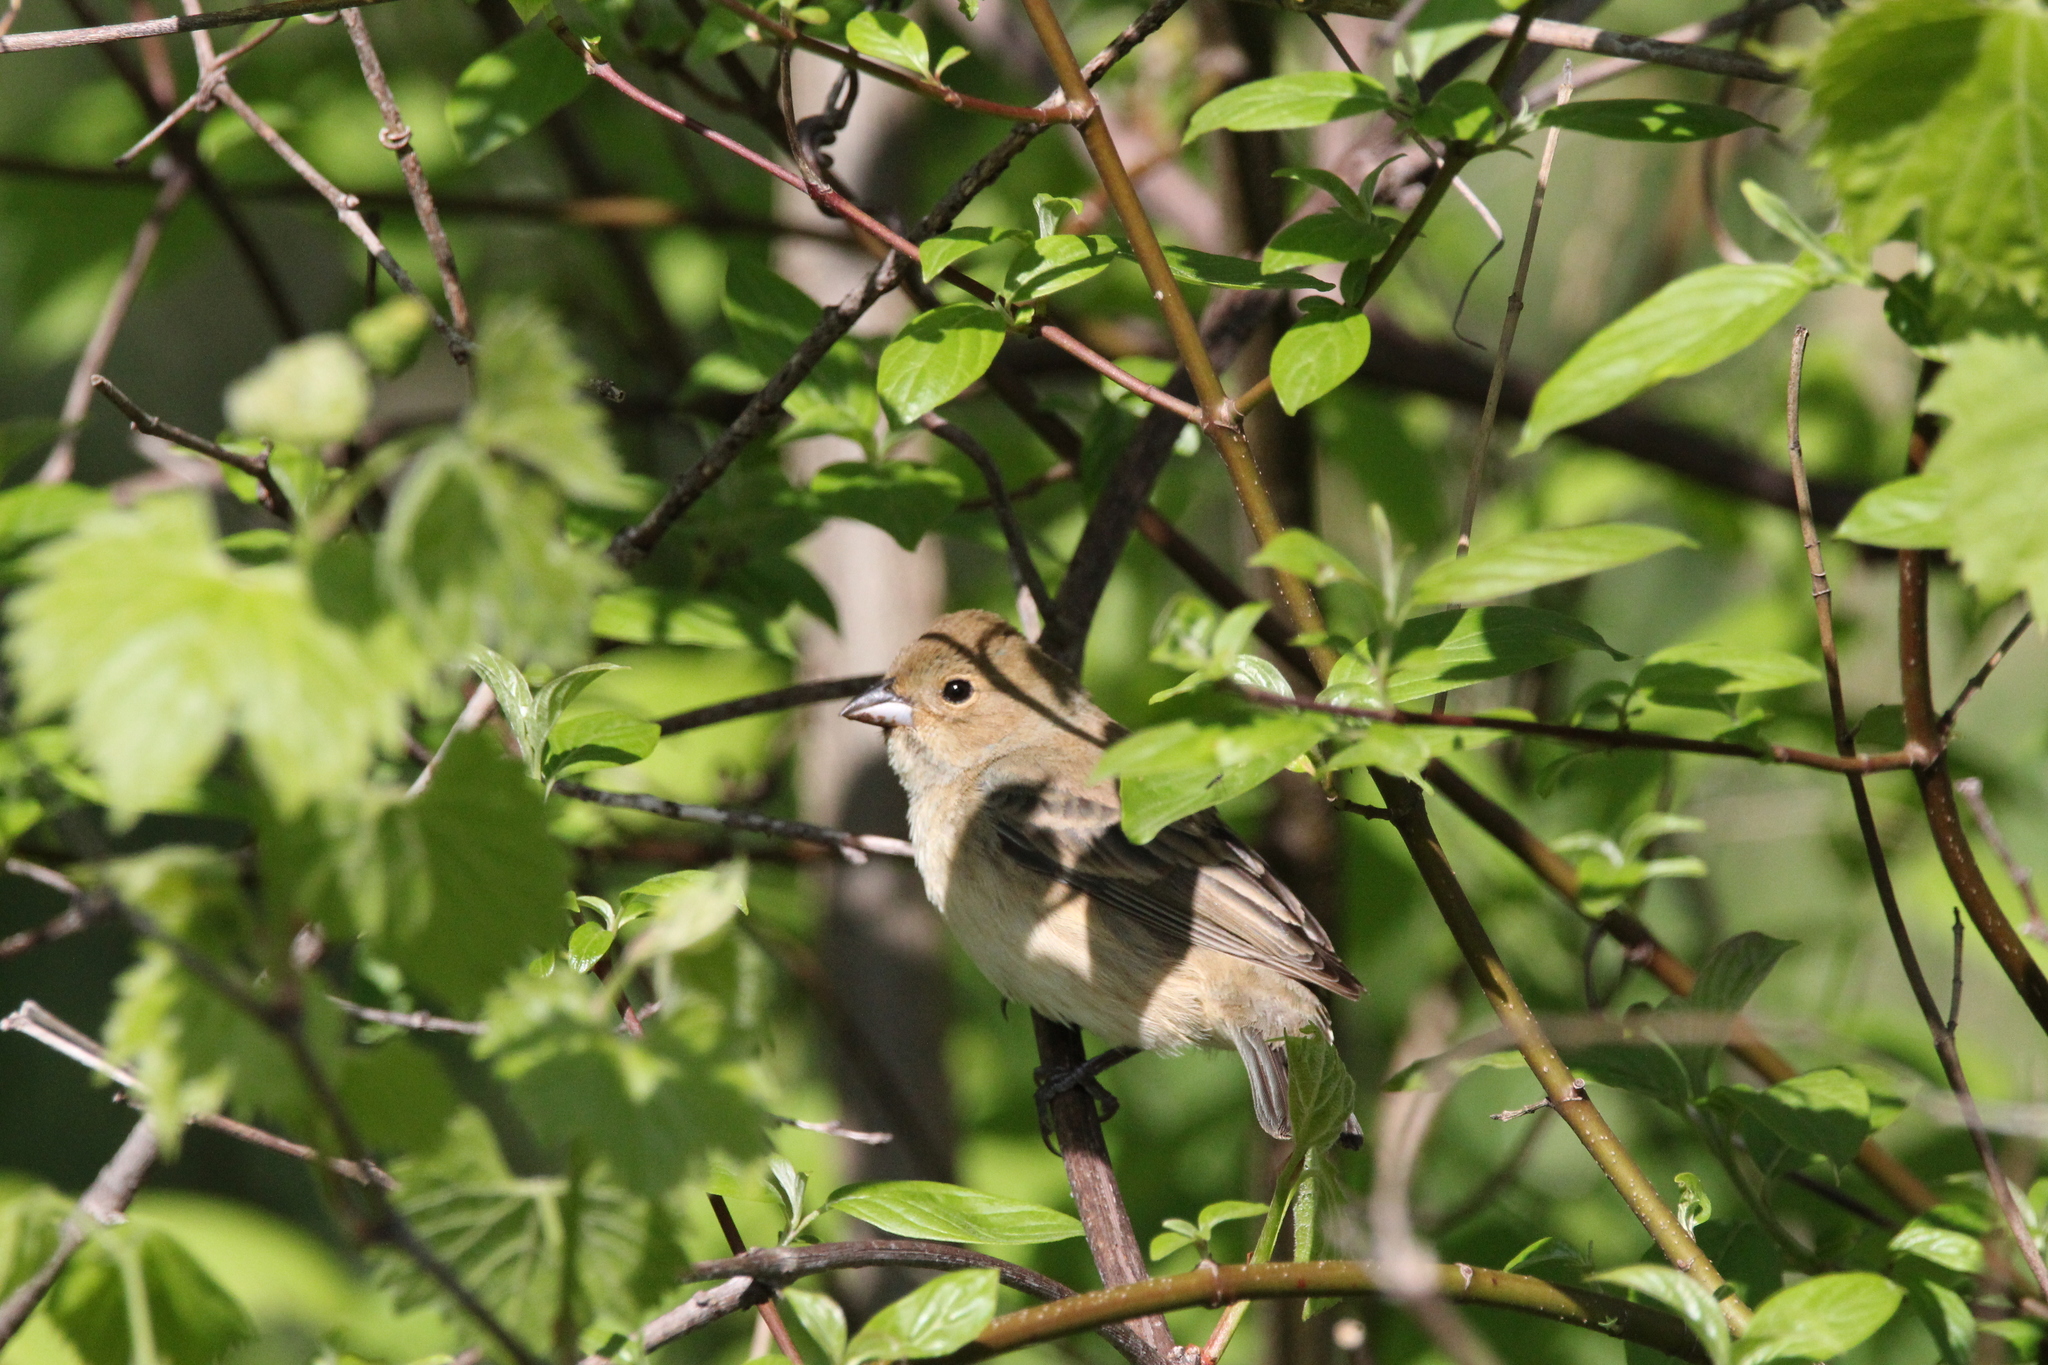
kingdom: Animalia
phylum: Chordata
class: Aves
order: Passeriformes
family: Cardinalidae
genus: Passerina
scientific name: Passerina cyanea
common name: Indigo bunting
